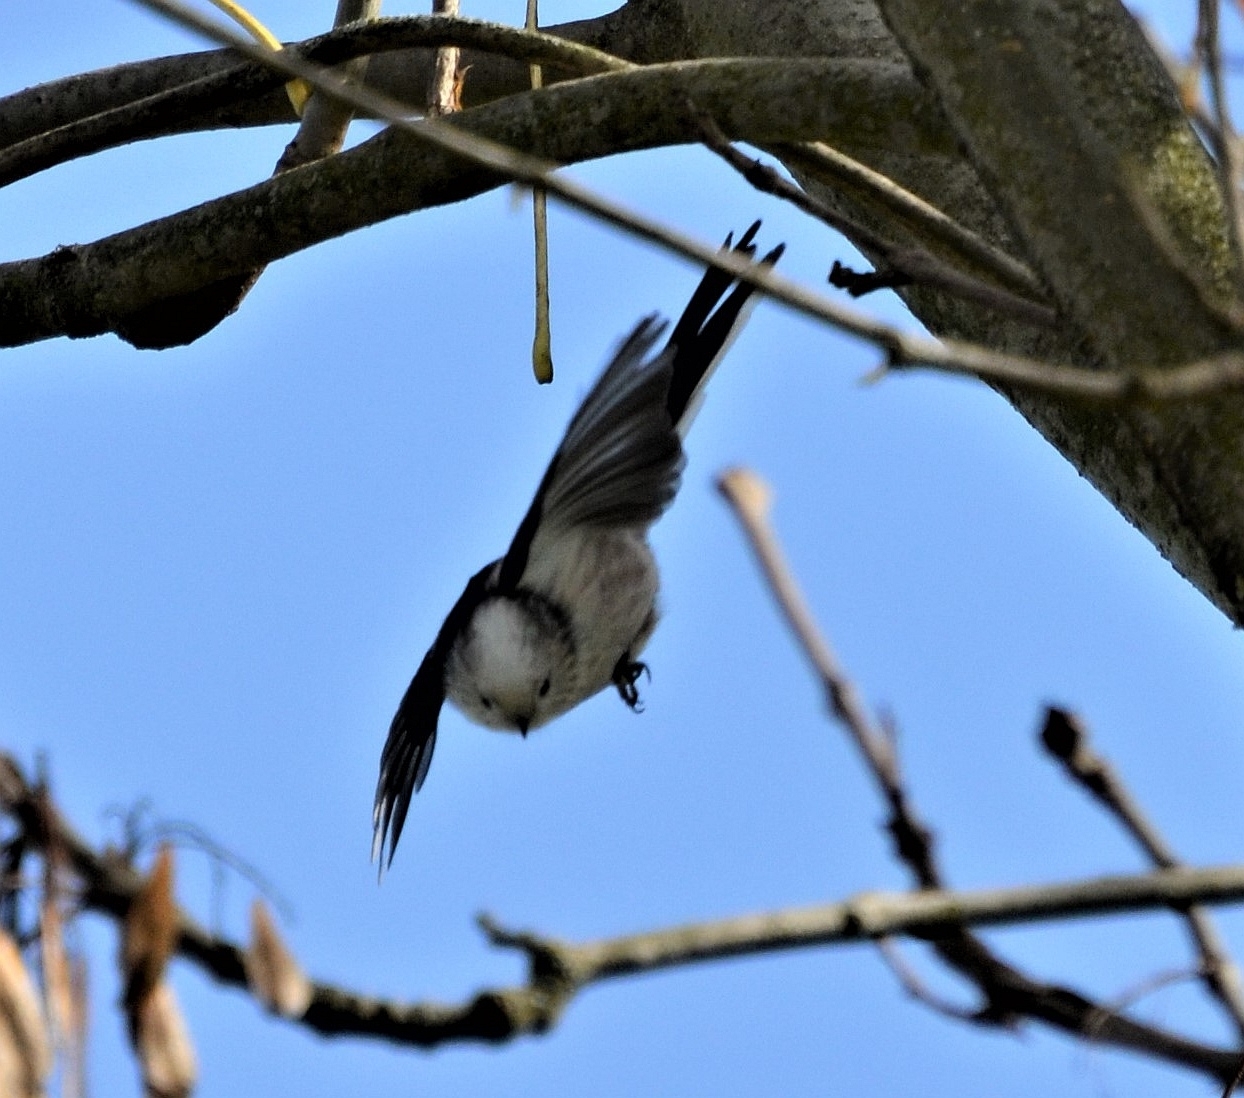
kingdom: Animalia
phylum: Chordata
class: Aves
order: Passeriformes
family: Aegithalidae
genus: Aegithalos
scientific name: Aegithalos caudatus
